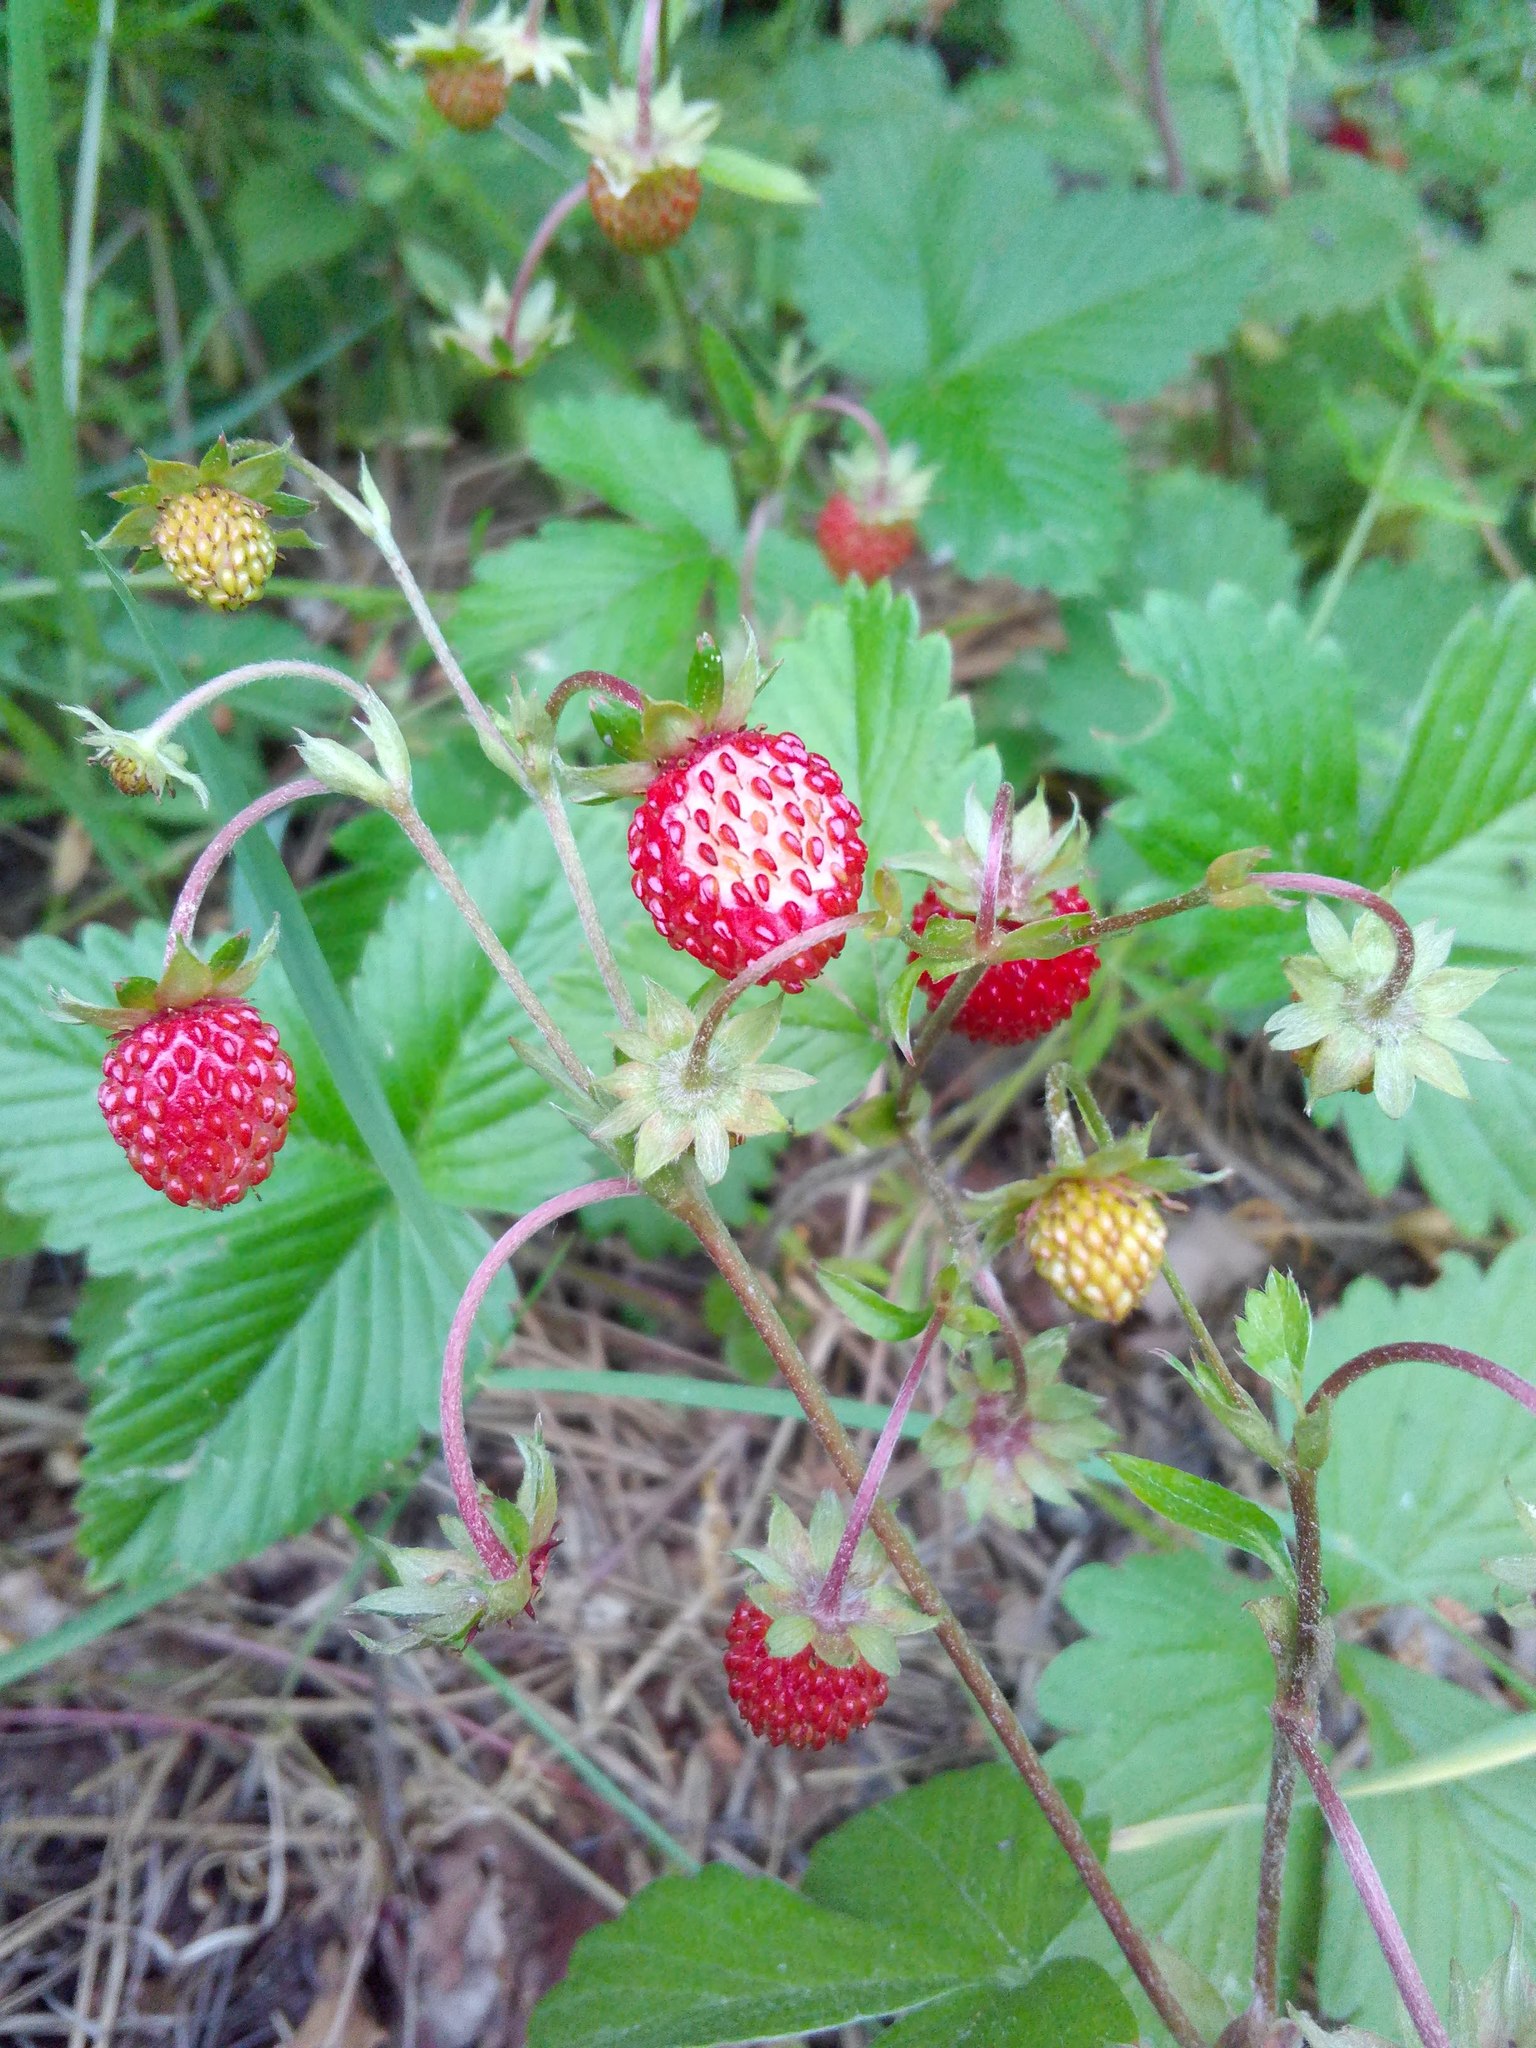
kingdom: Plantae
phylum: Tracheophyta
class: Magnoliopsida
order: Rosales
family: Rosaceae
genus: Fragaria
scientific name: Fragaria vesca
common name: Wild strawberry
